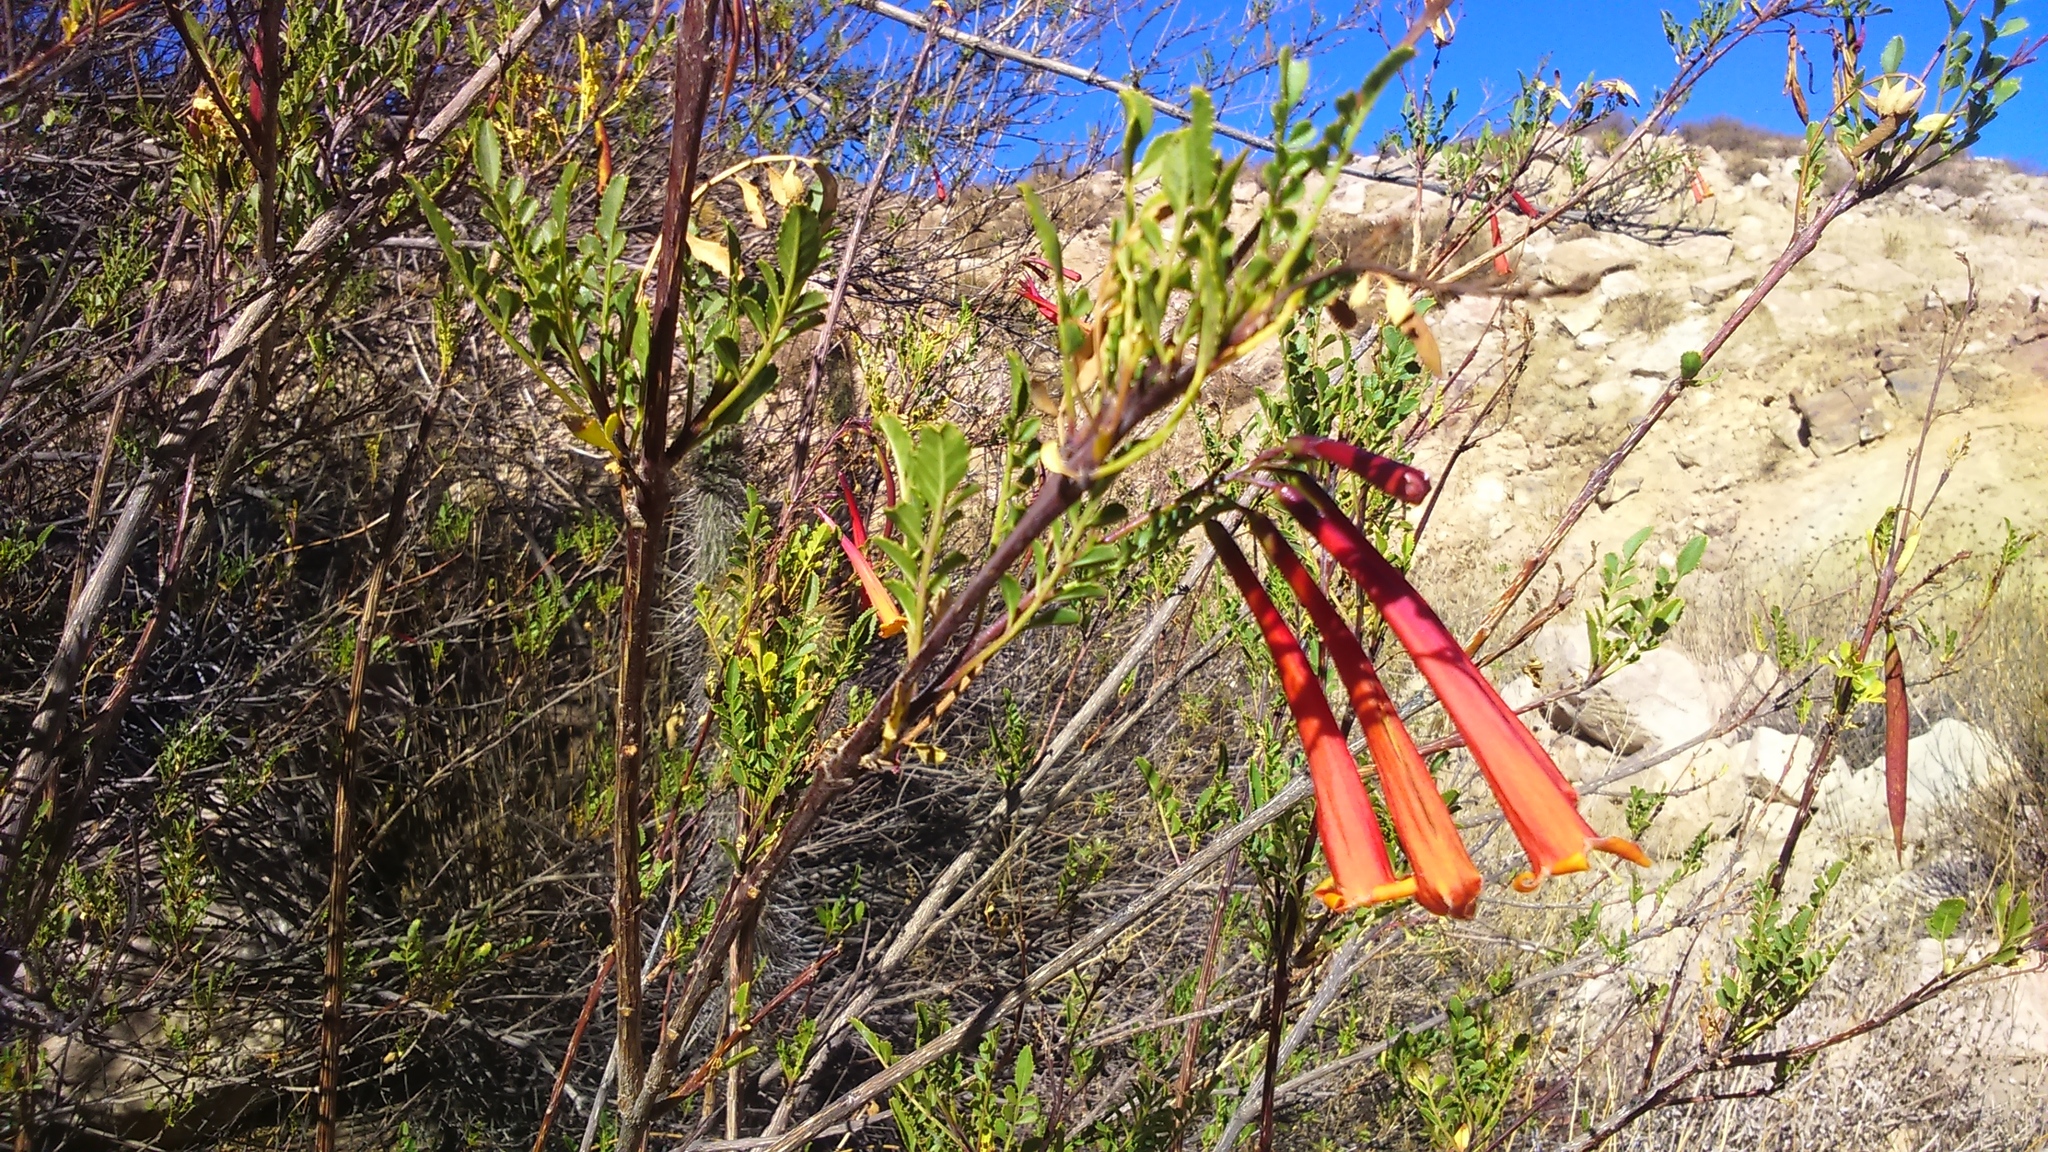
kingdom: Plantae
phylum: Tracheophyta
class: Magnoliopsida
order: Lamiales
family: Bignoniaceae
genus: Tecoma
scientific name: Tecoma fulva
